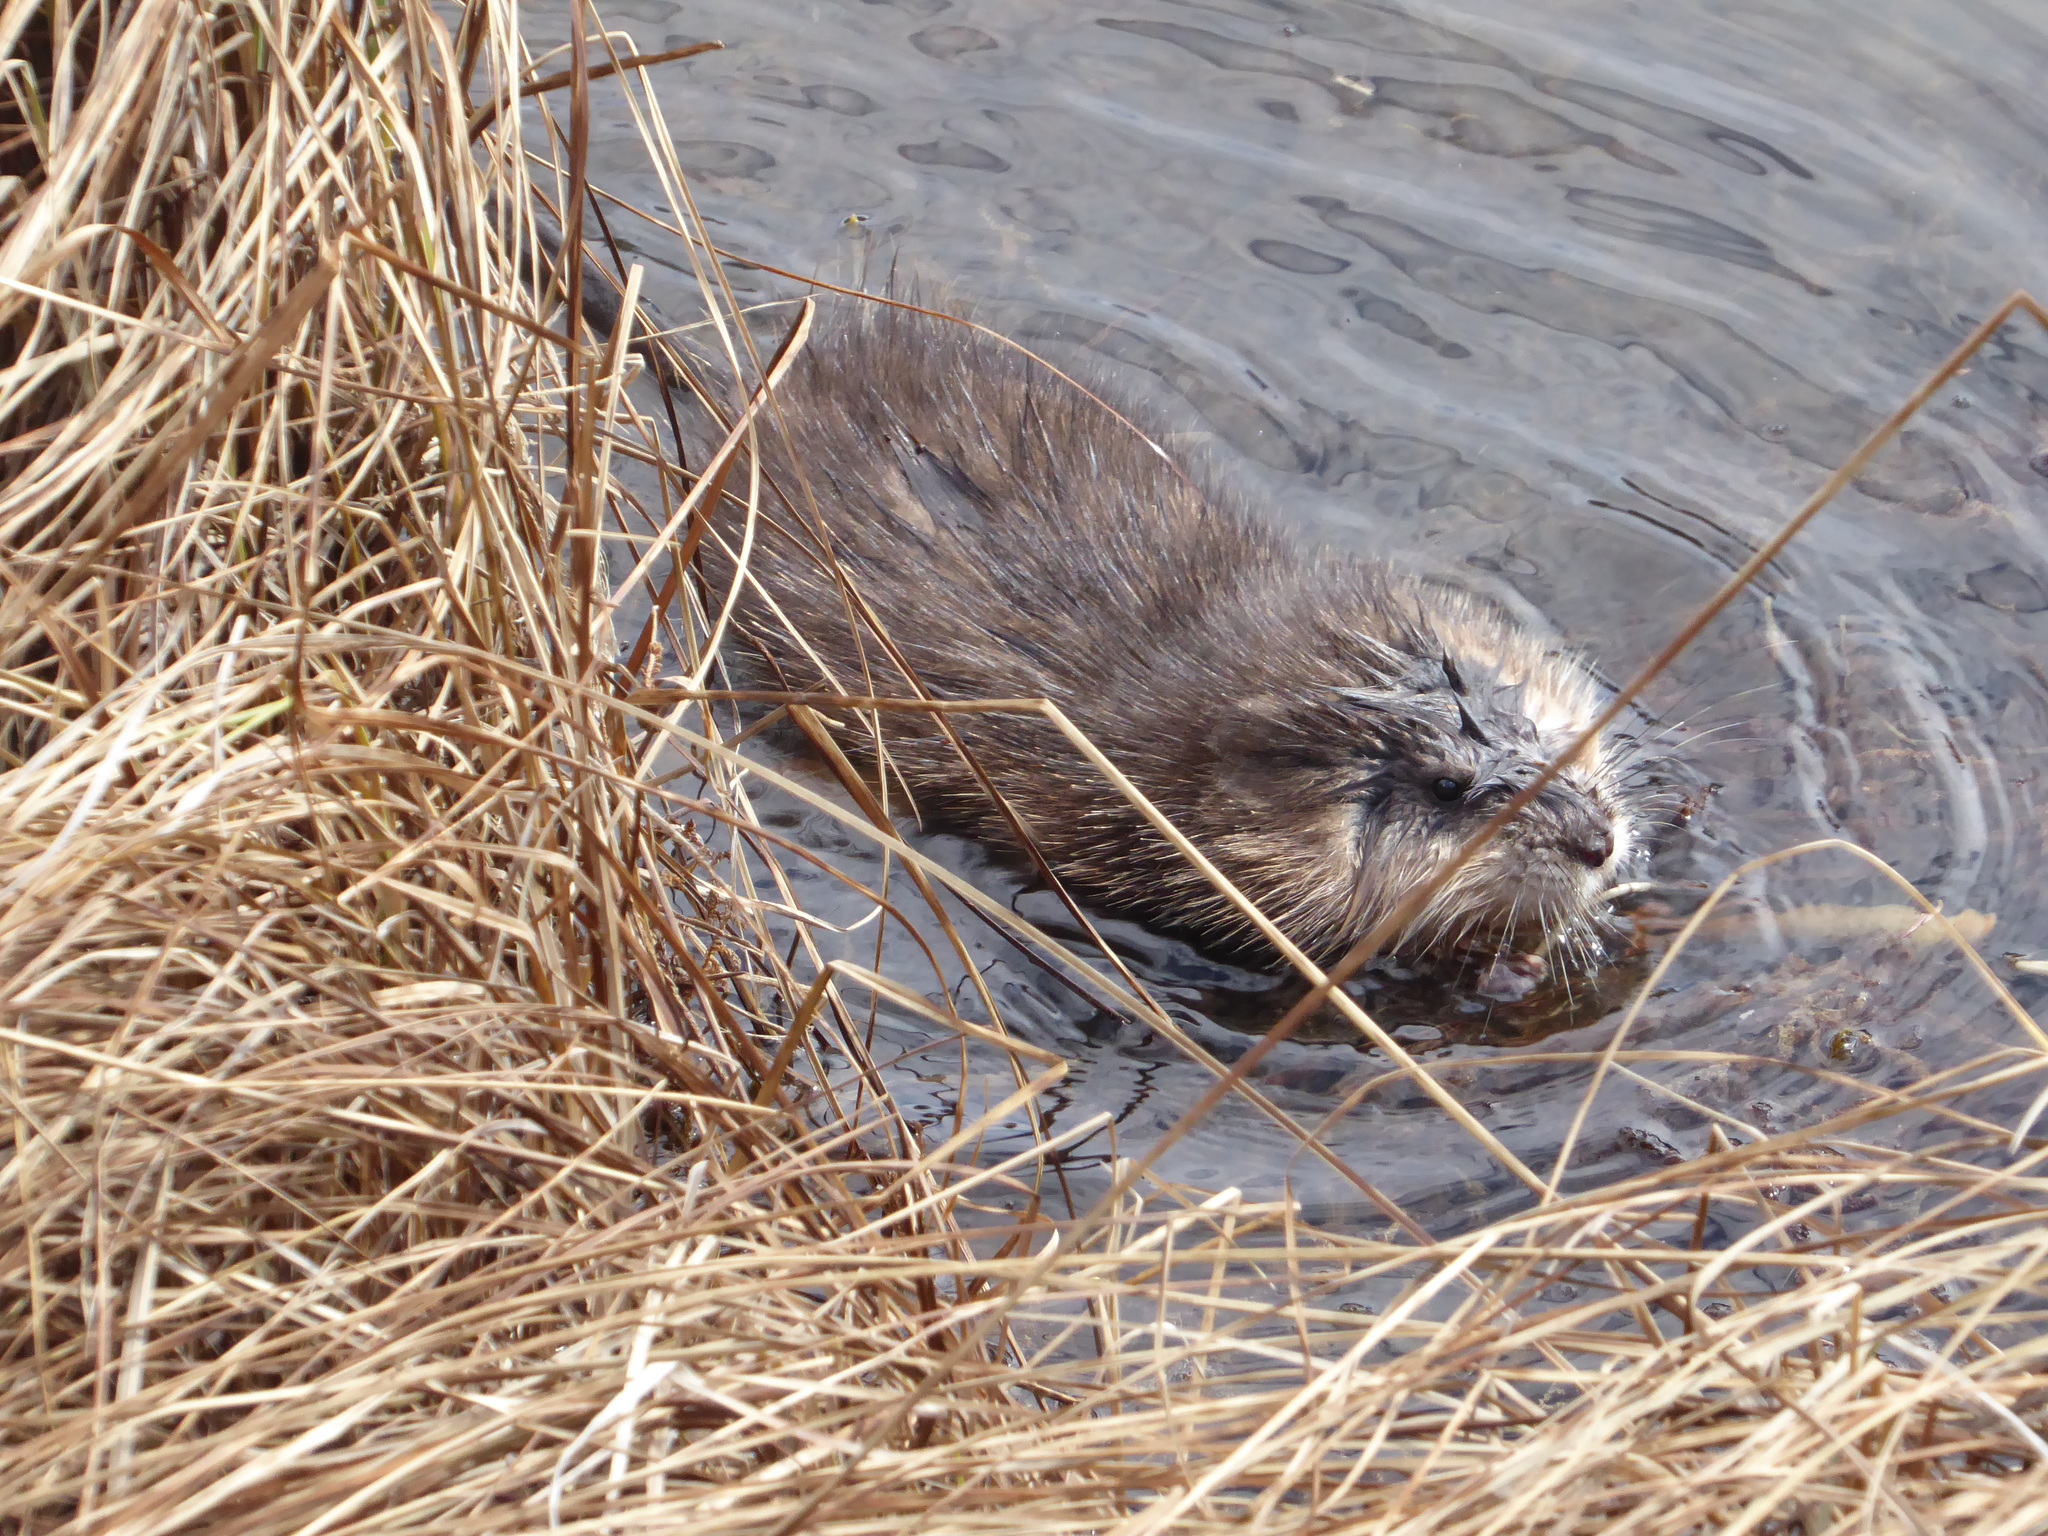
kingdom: Animalia
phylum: Chordata
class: Mammalia
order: Rodentia
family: Cricetidae
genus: Ondatra
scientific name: Ondatra zibethicus
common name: Muskrat
